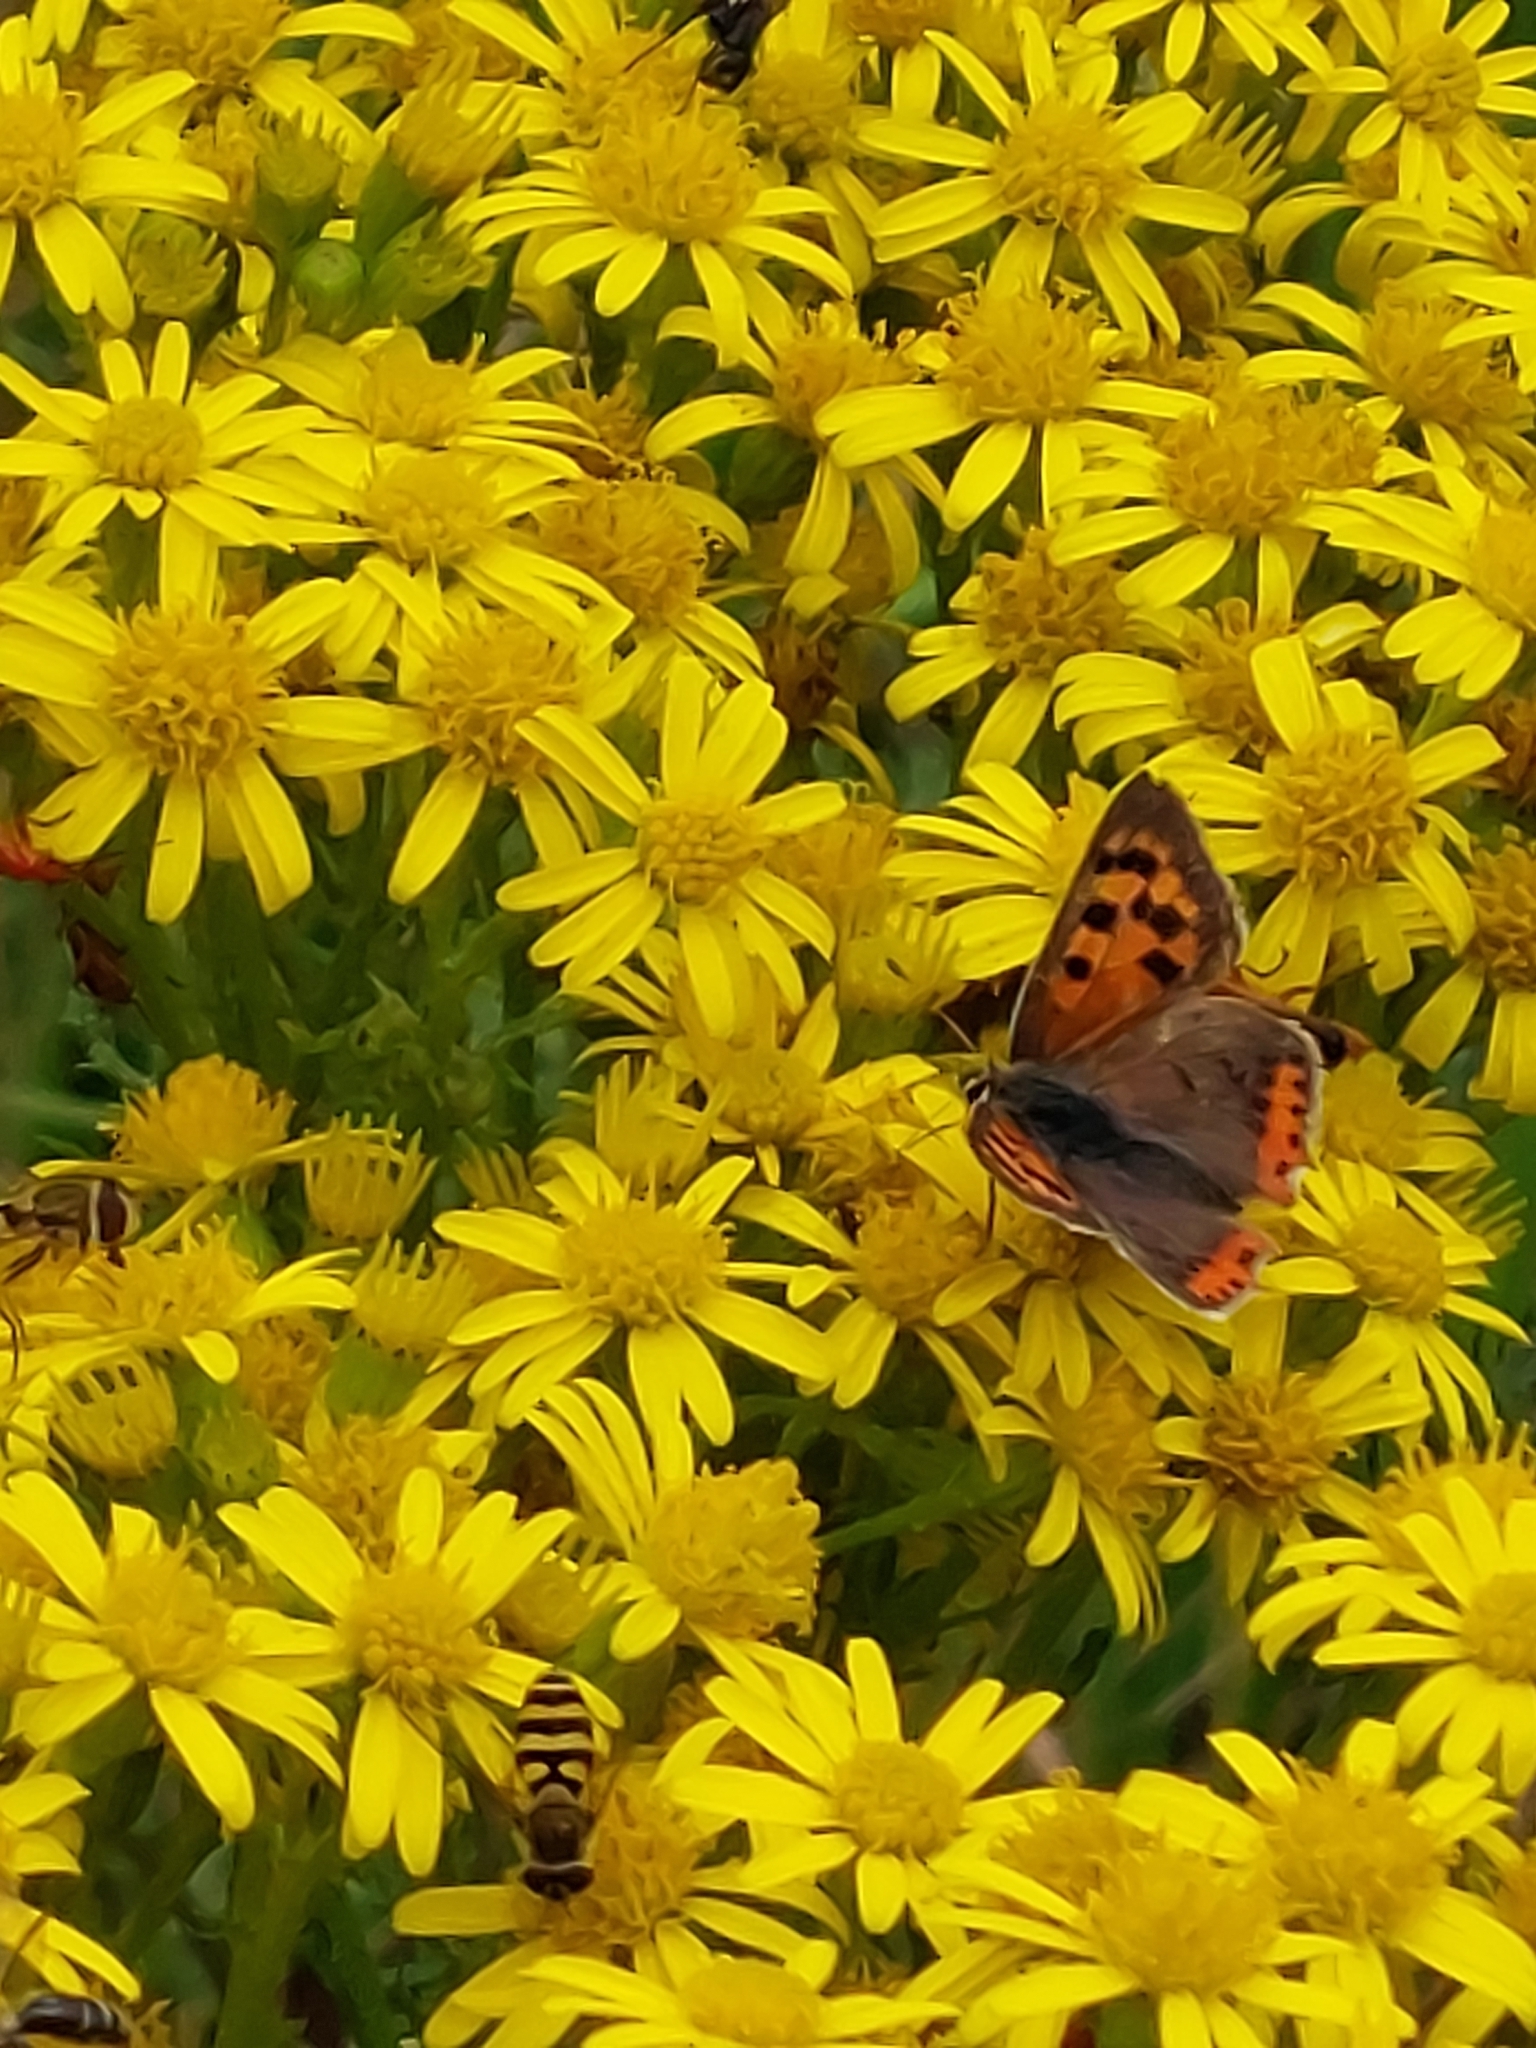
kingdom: Animalia
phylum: Arthropoda
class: Insecta
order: Lepidoptera
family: Lycaenidae
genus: Lycaena
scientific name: Lycaena phlaeas
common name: Small copper
